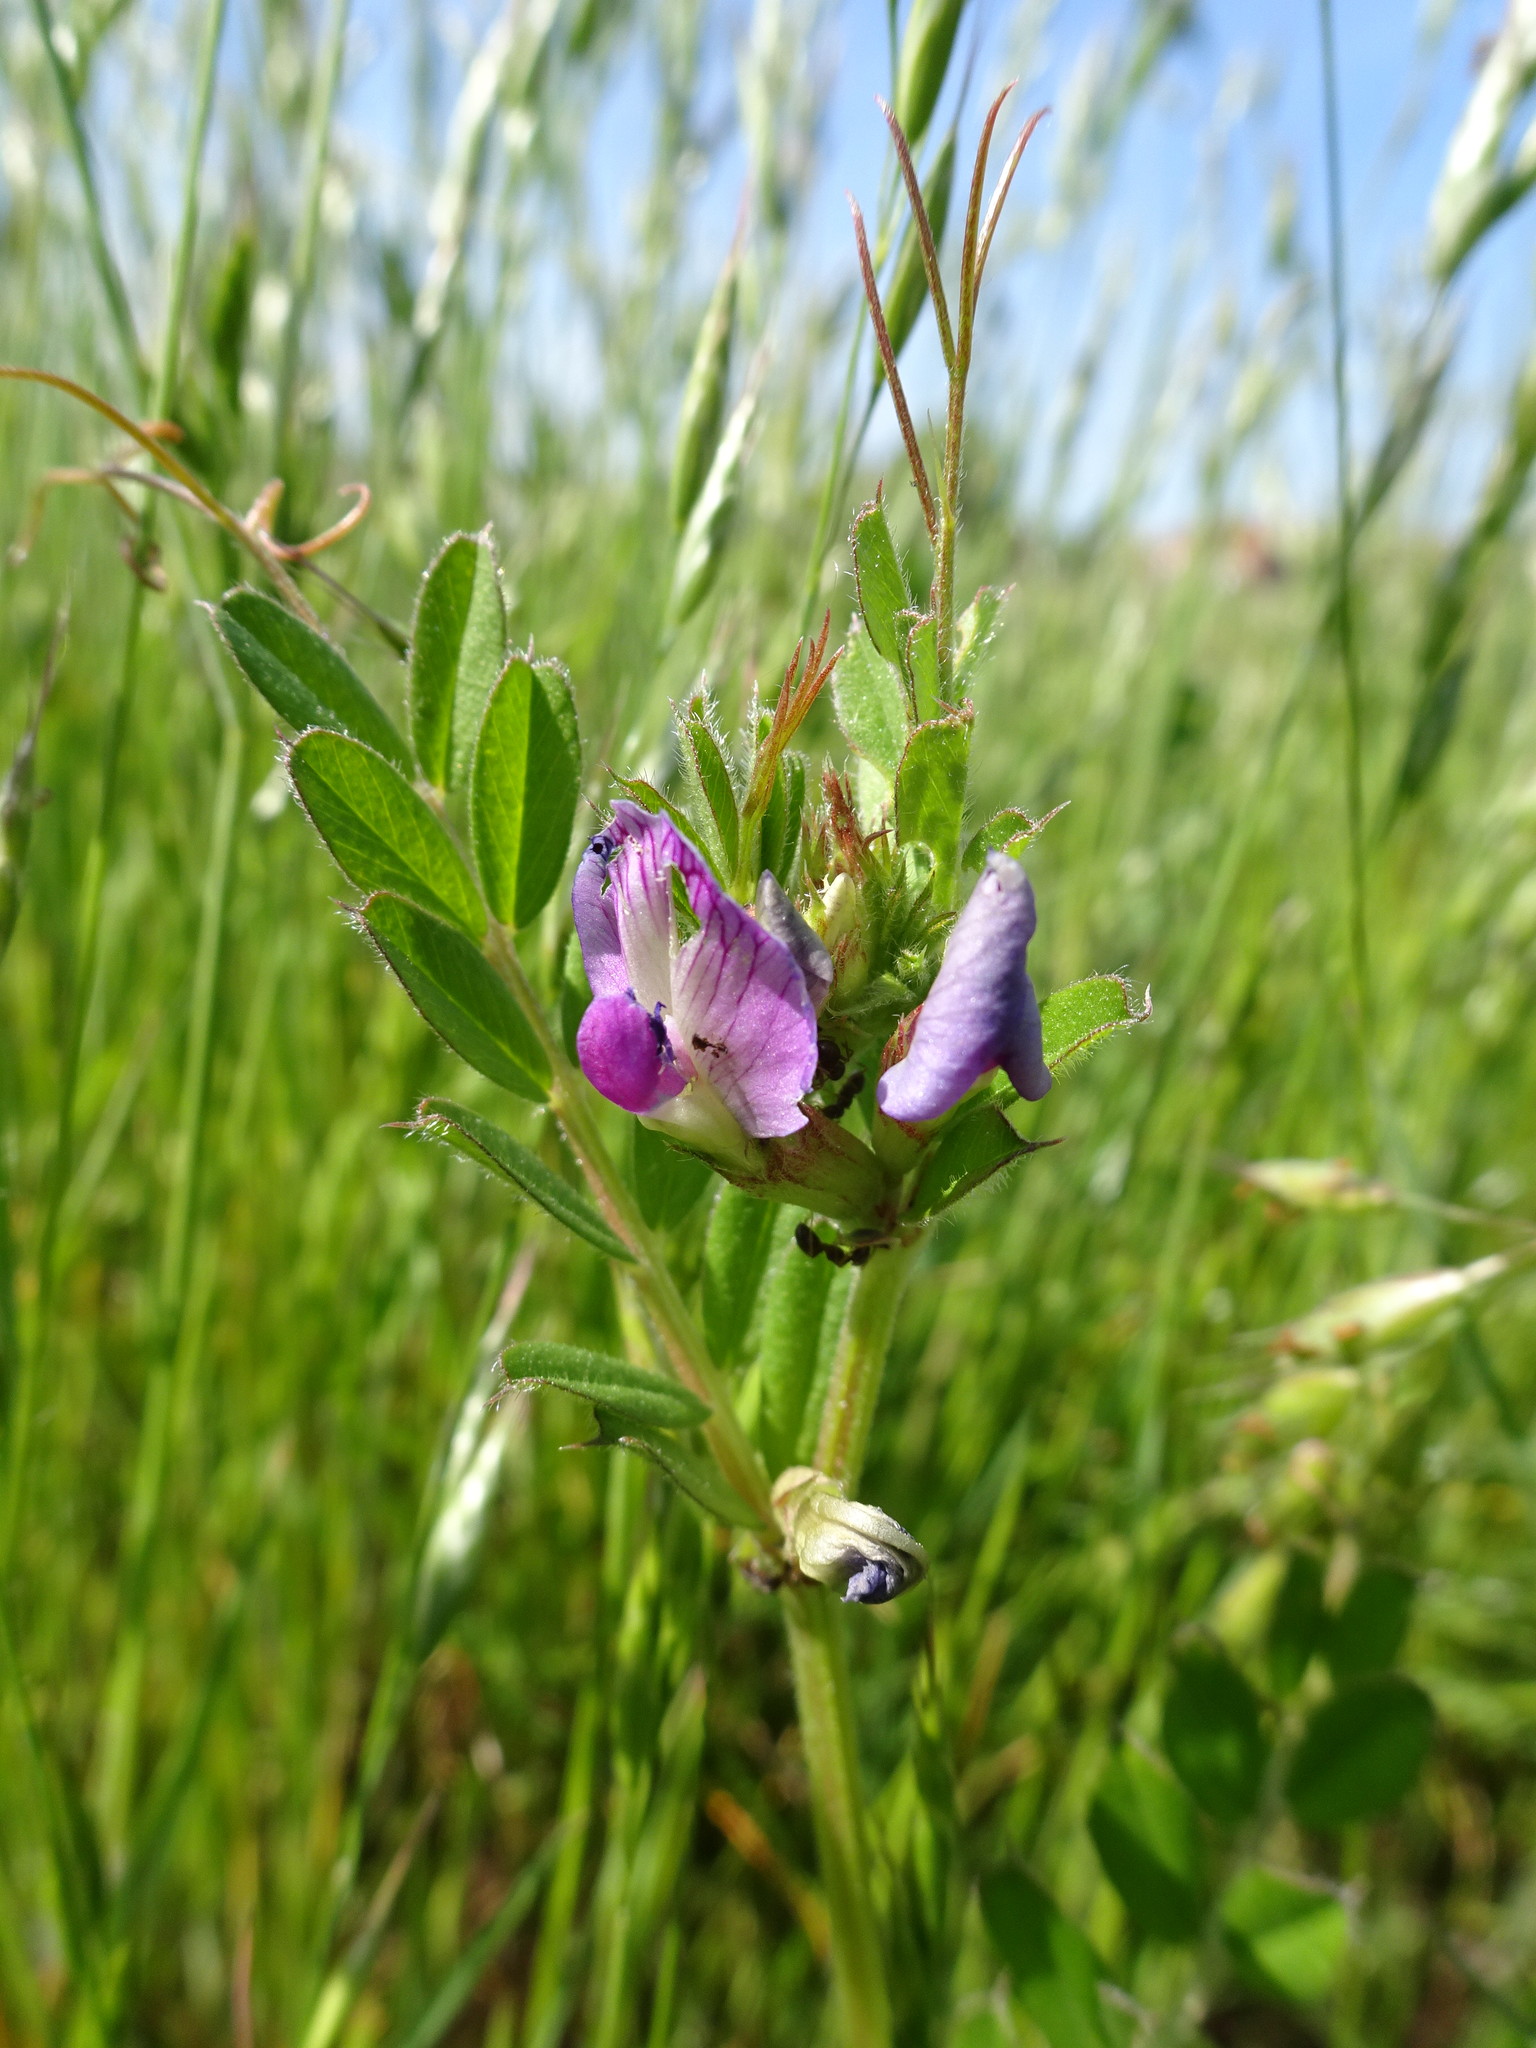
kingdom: Plantae
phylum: Tracheophyta
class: Magnoliopsida
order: Fabales
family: Fabaceae
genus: Vicia
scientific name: Vicia sativa
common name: Garden vetch
